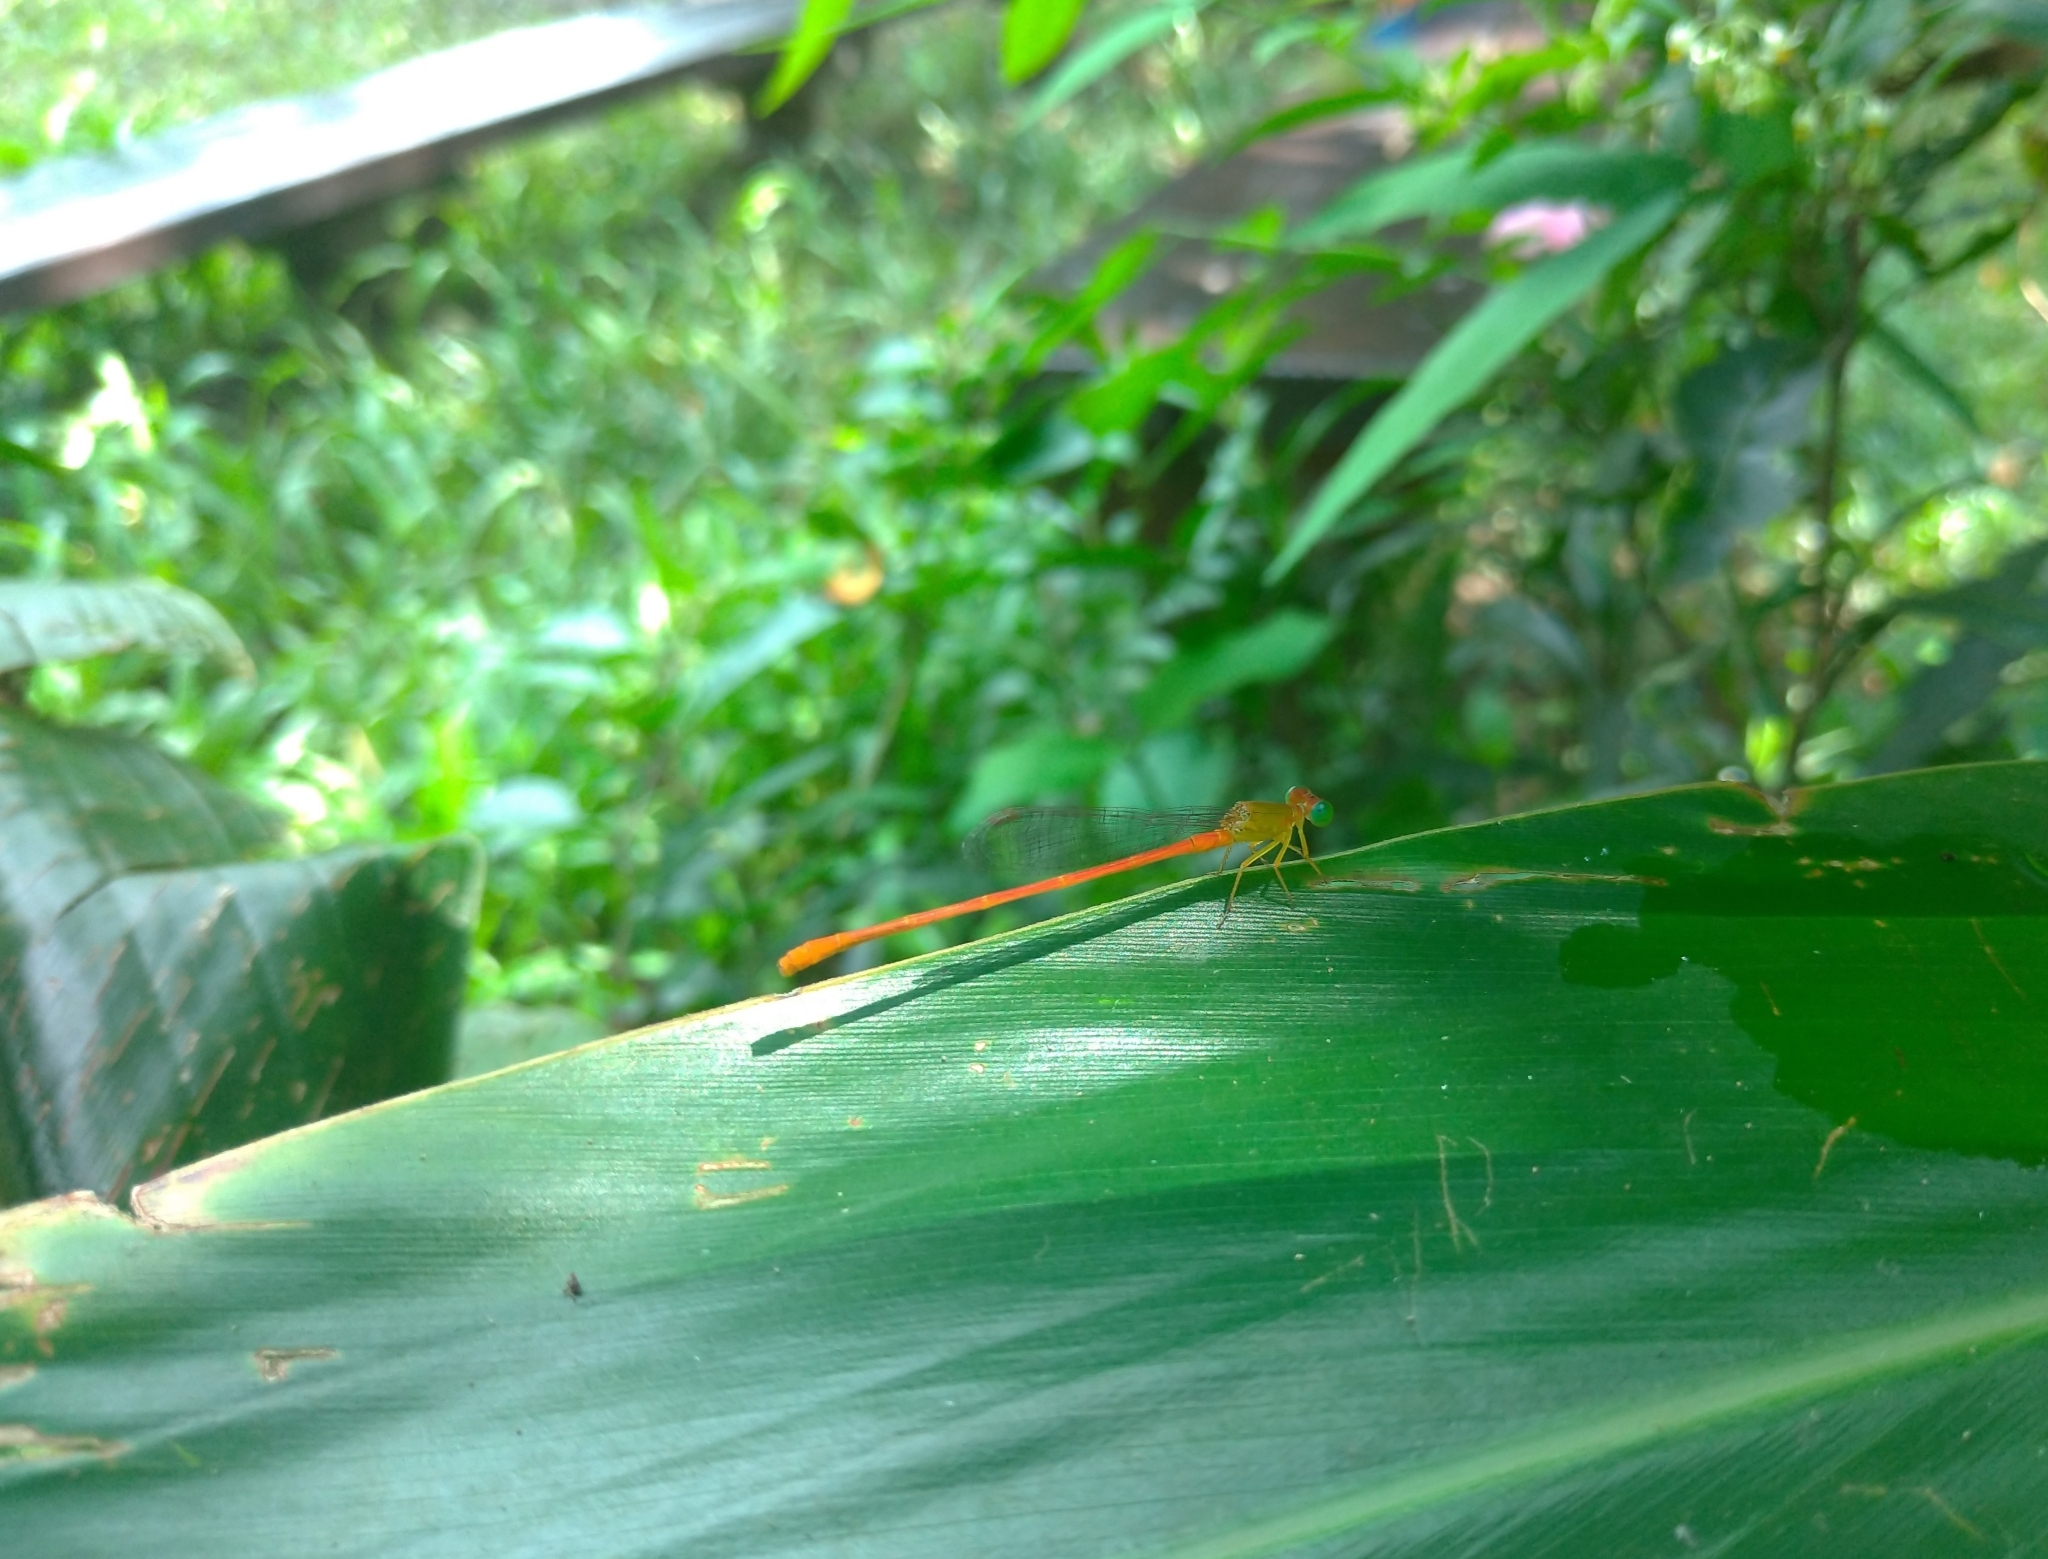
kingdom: Animalia
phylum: Arthropoda
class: Insecta
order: Odonata
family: Coenagrionidae
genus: Ceriagrion
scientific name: Ceriagrion auranticum
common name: Orange-tailed sprite
